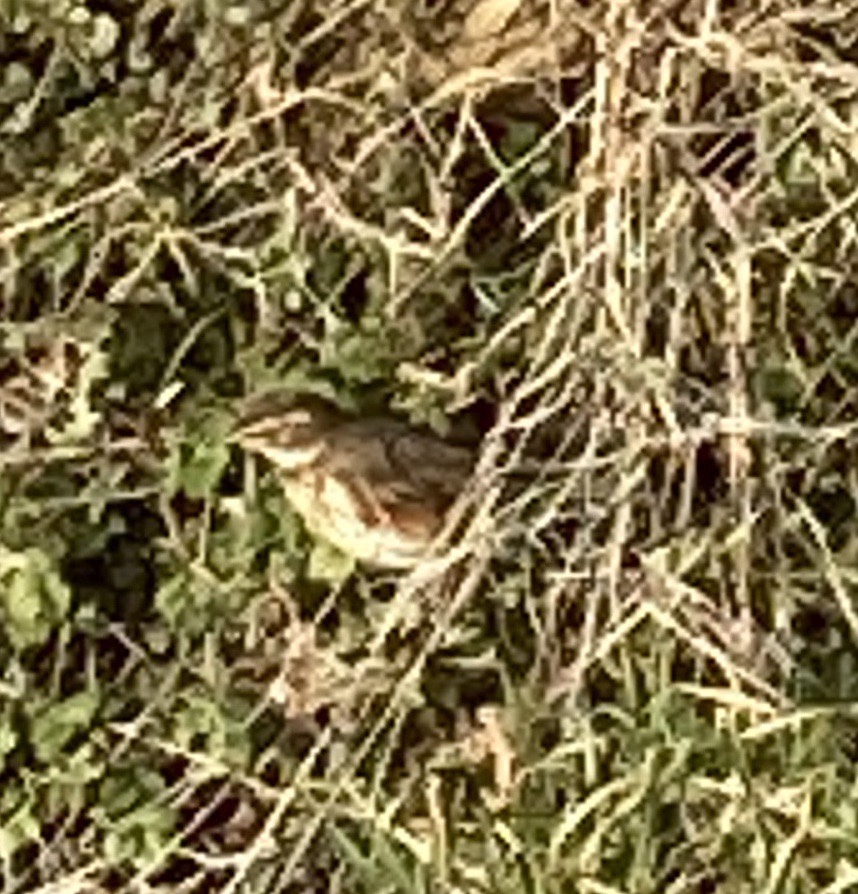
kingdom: Animalia
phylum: Chordata
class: Aves
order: Passeriformes
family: Turdidae
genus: Turdus
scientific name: Turdus iliacus
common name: Redwing
